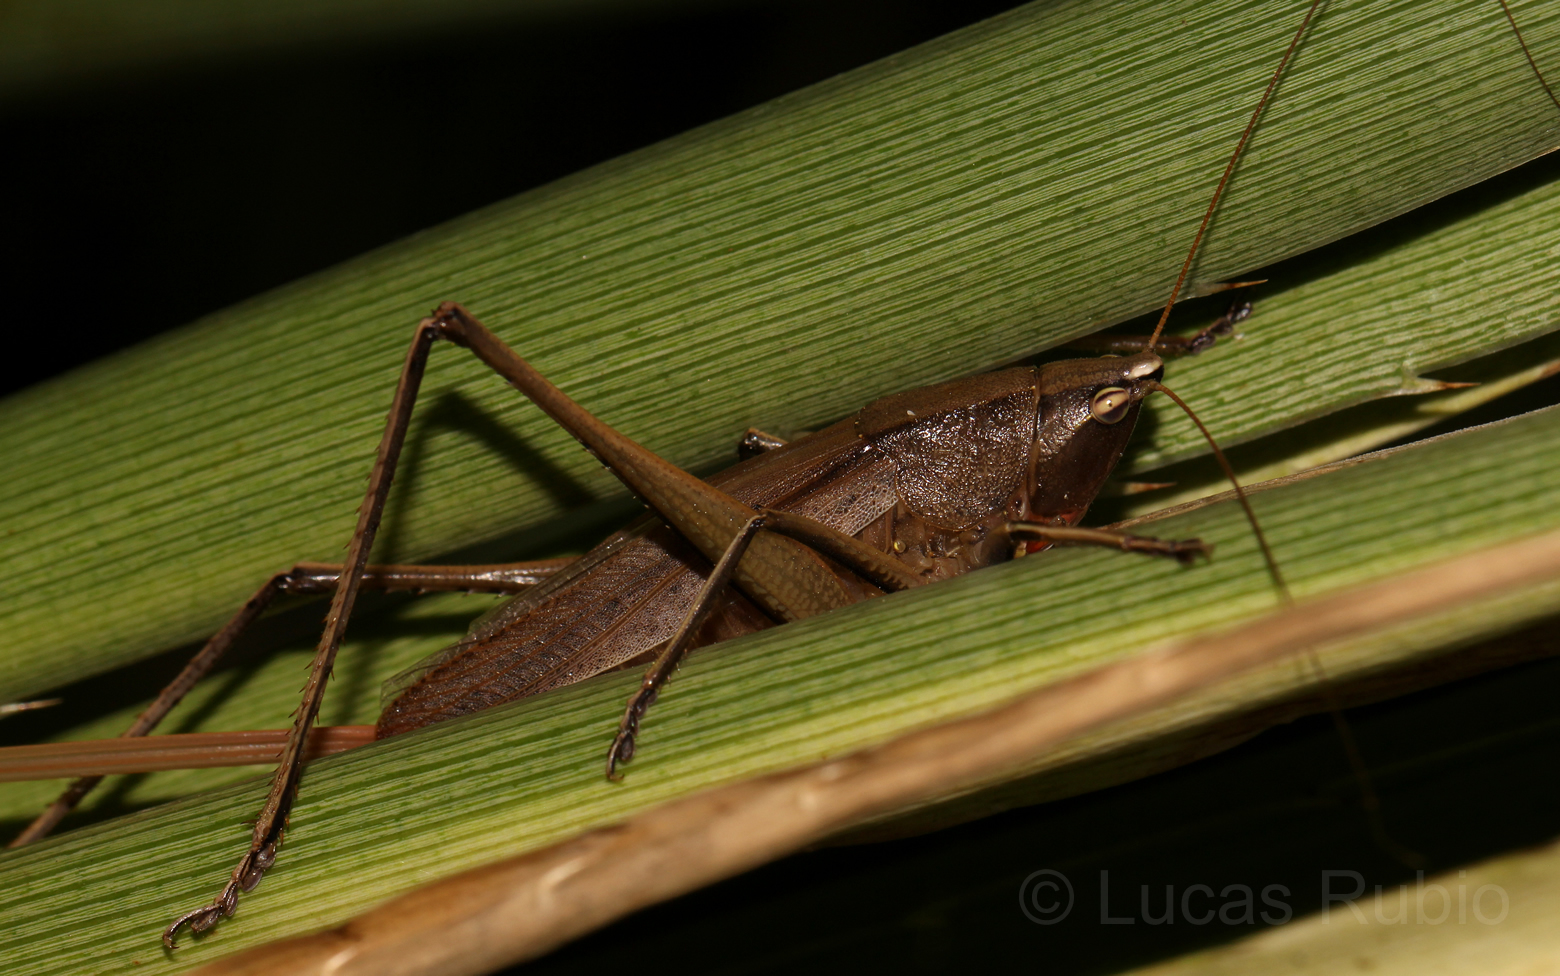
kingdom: Animalia
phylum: Arthropoda
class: Insecta
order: Orthoptera
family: Tettigoniidae
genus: Neoconocephalus
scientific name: Neoconocephalus brevis
